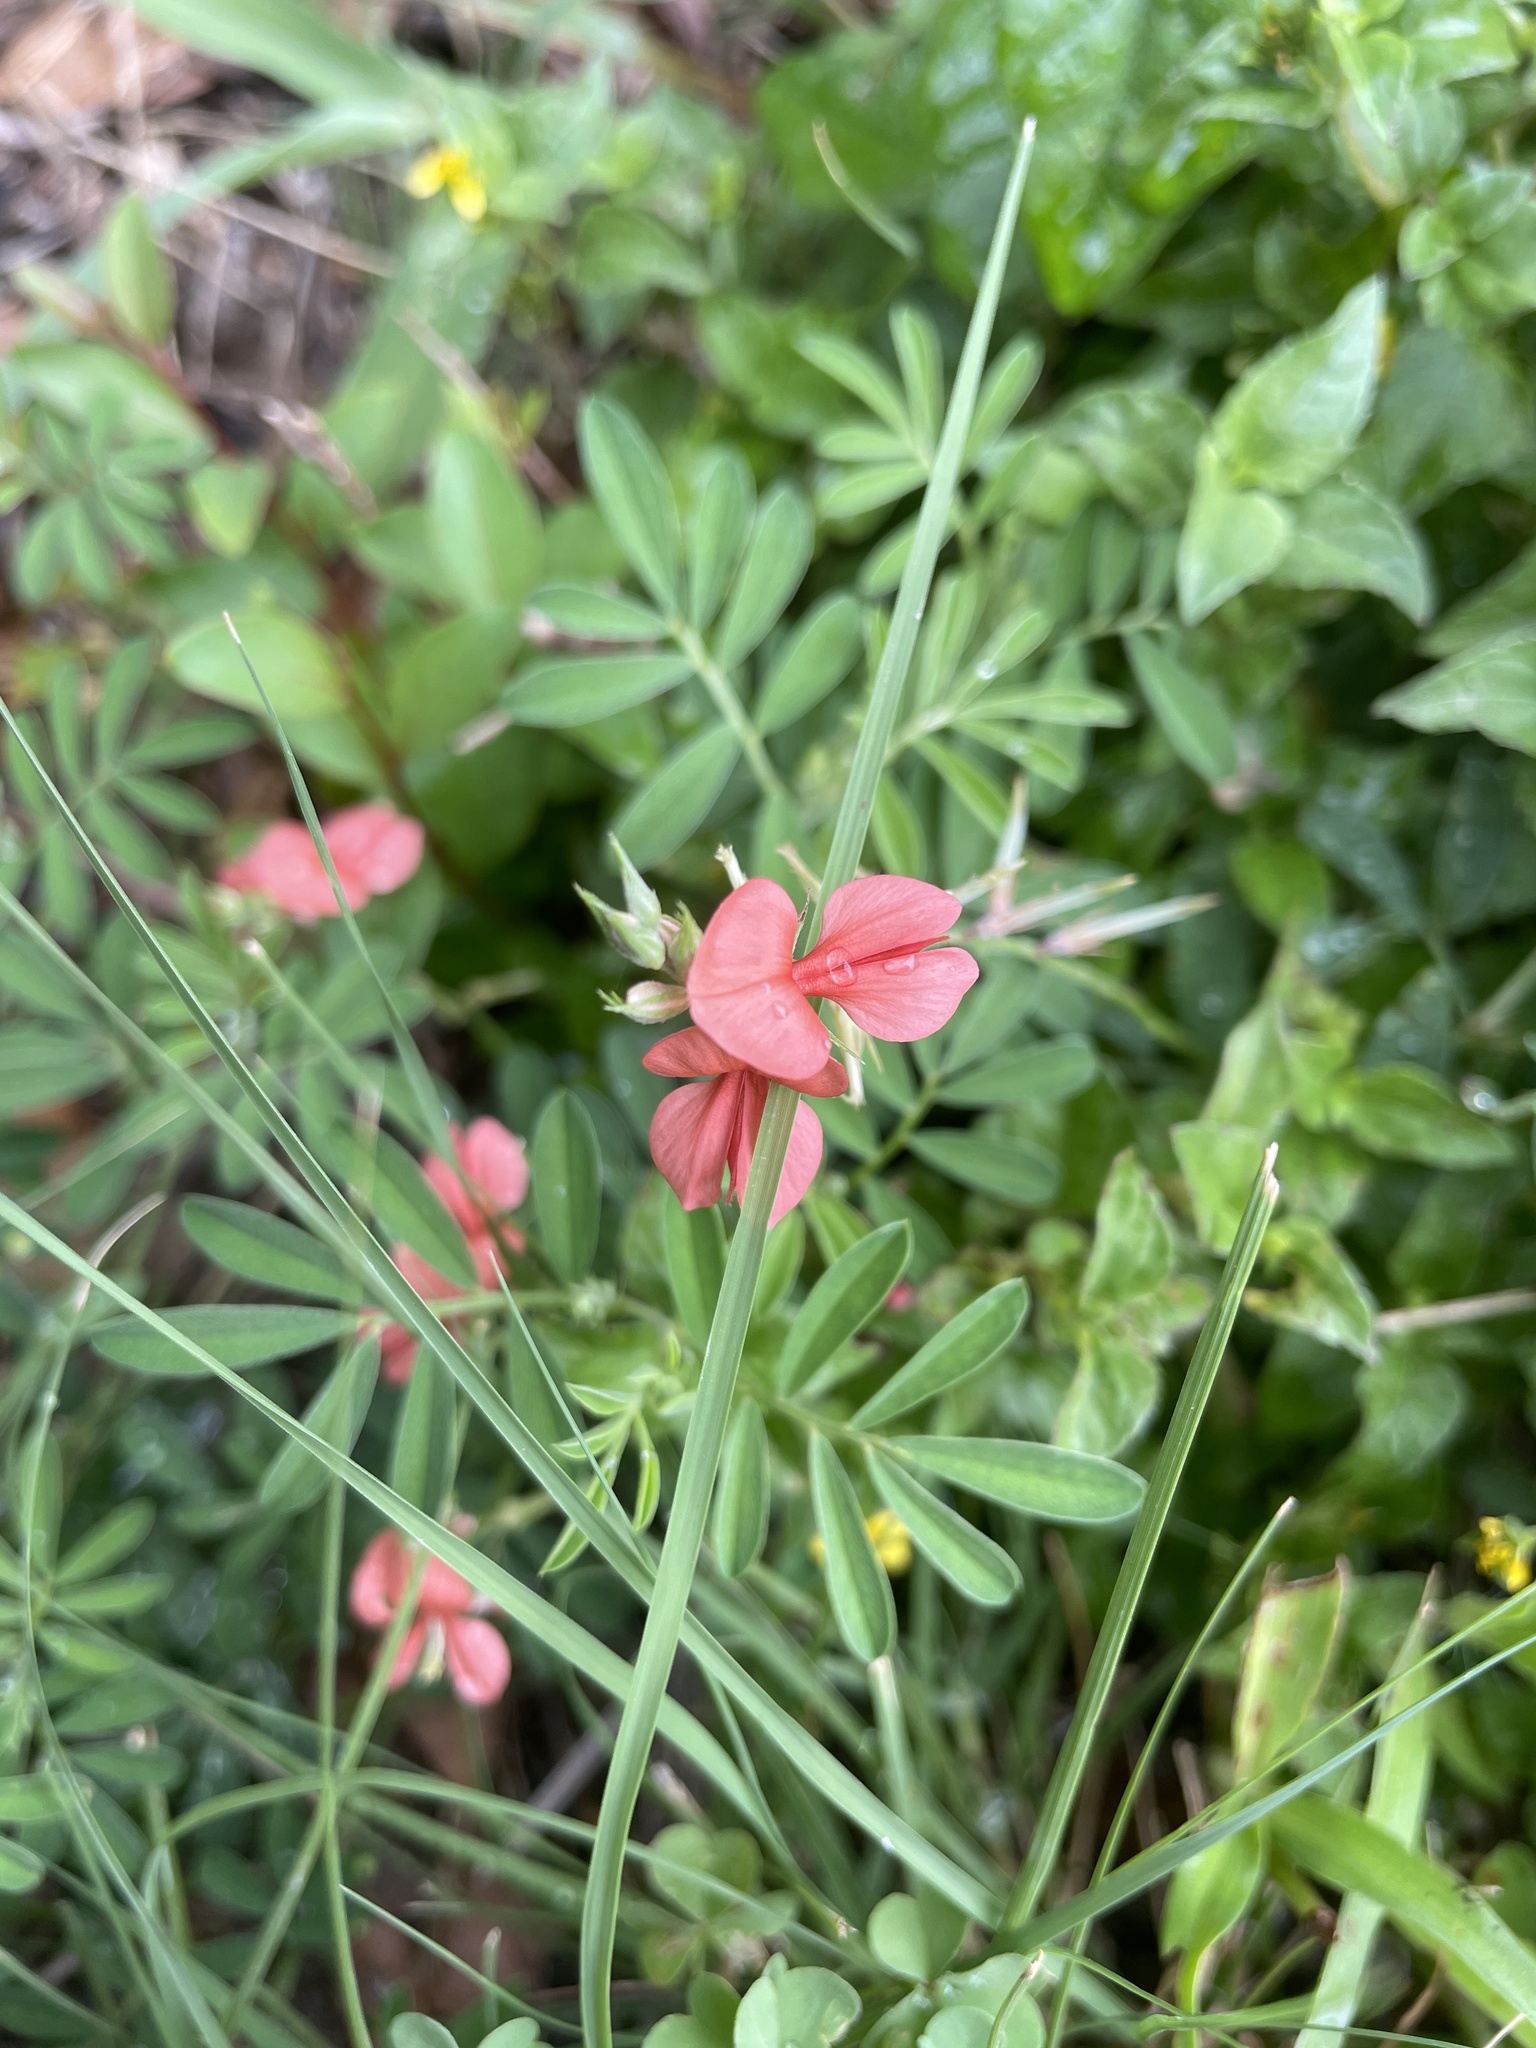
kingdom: Plantae
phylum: Tracheophyta
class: Magnoliopsida
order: Fabales
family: Fabaceae
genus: Indigofera
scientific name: Indigofera miniata
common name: Coast indigo
